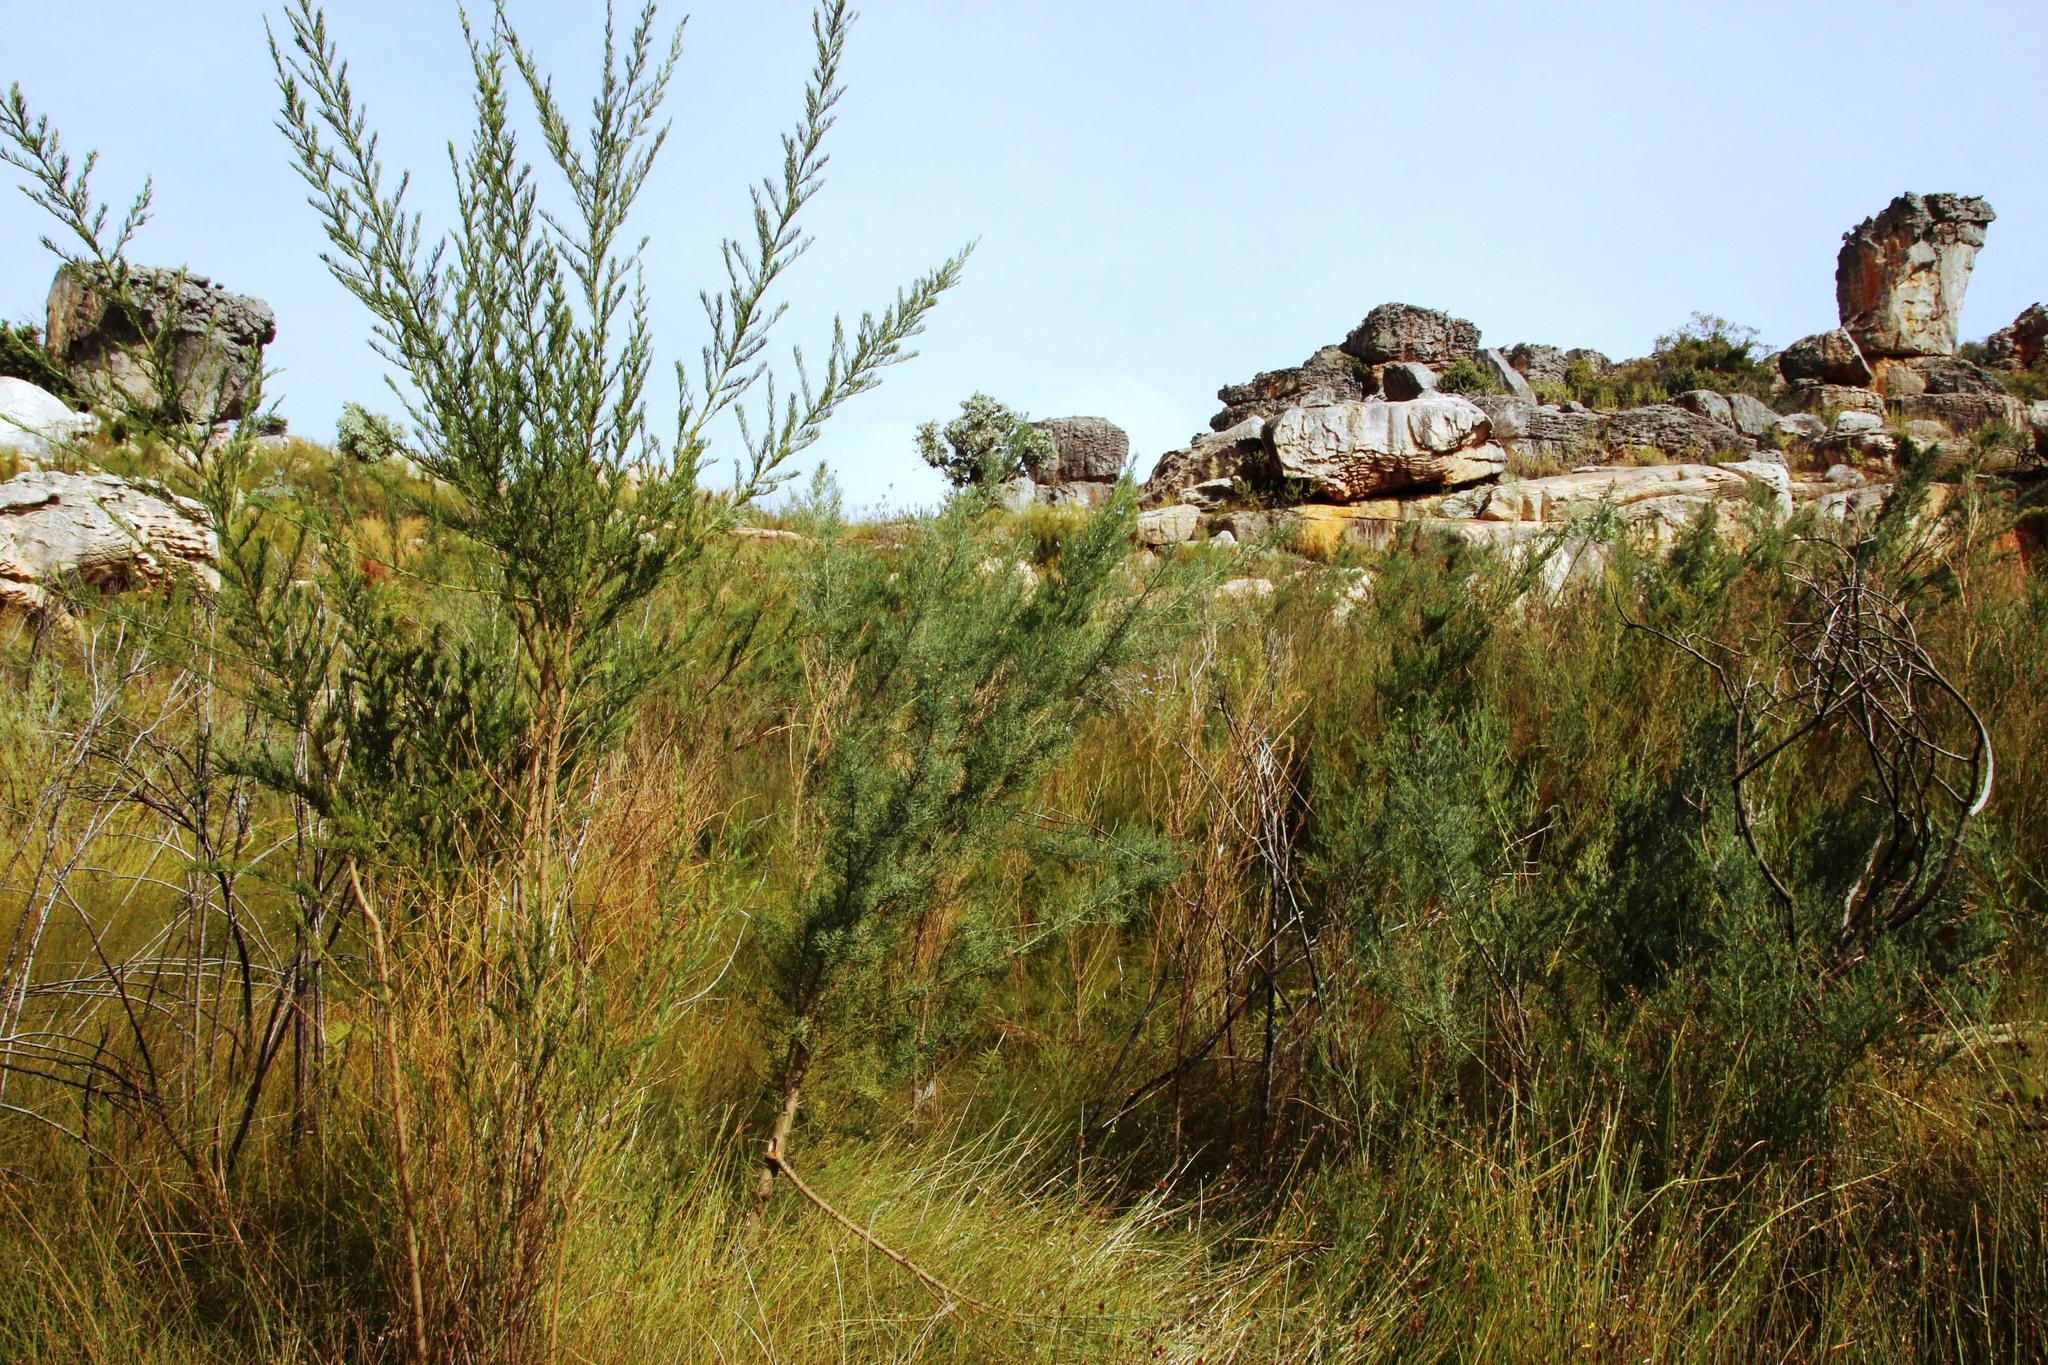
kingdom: Plantae
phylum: Tracheophyta
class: Magnoliopsida
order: Fabales
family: Fabaceae
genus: Psoralea
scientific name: Psoralea verrucosa
